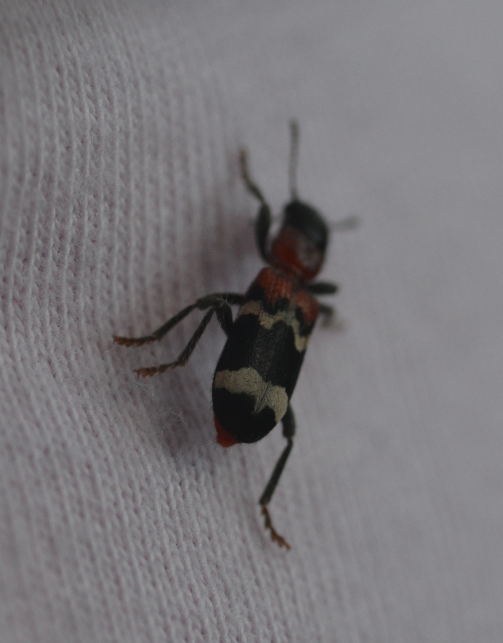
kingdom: Animalia
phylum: Arthropoda
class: Insecta
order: Coleoptera
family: Cleridae
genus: Thanasimus
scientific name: Thanasimus formicarius
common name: Ant beetle
